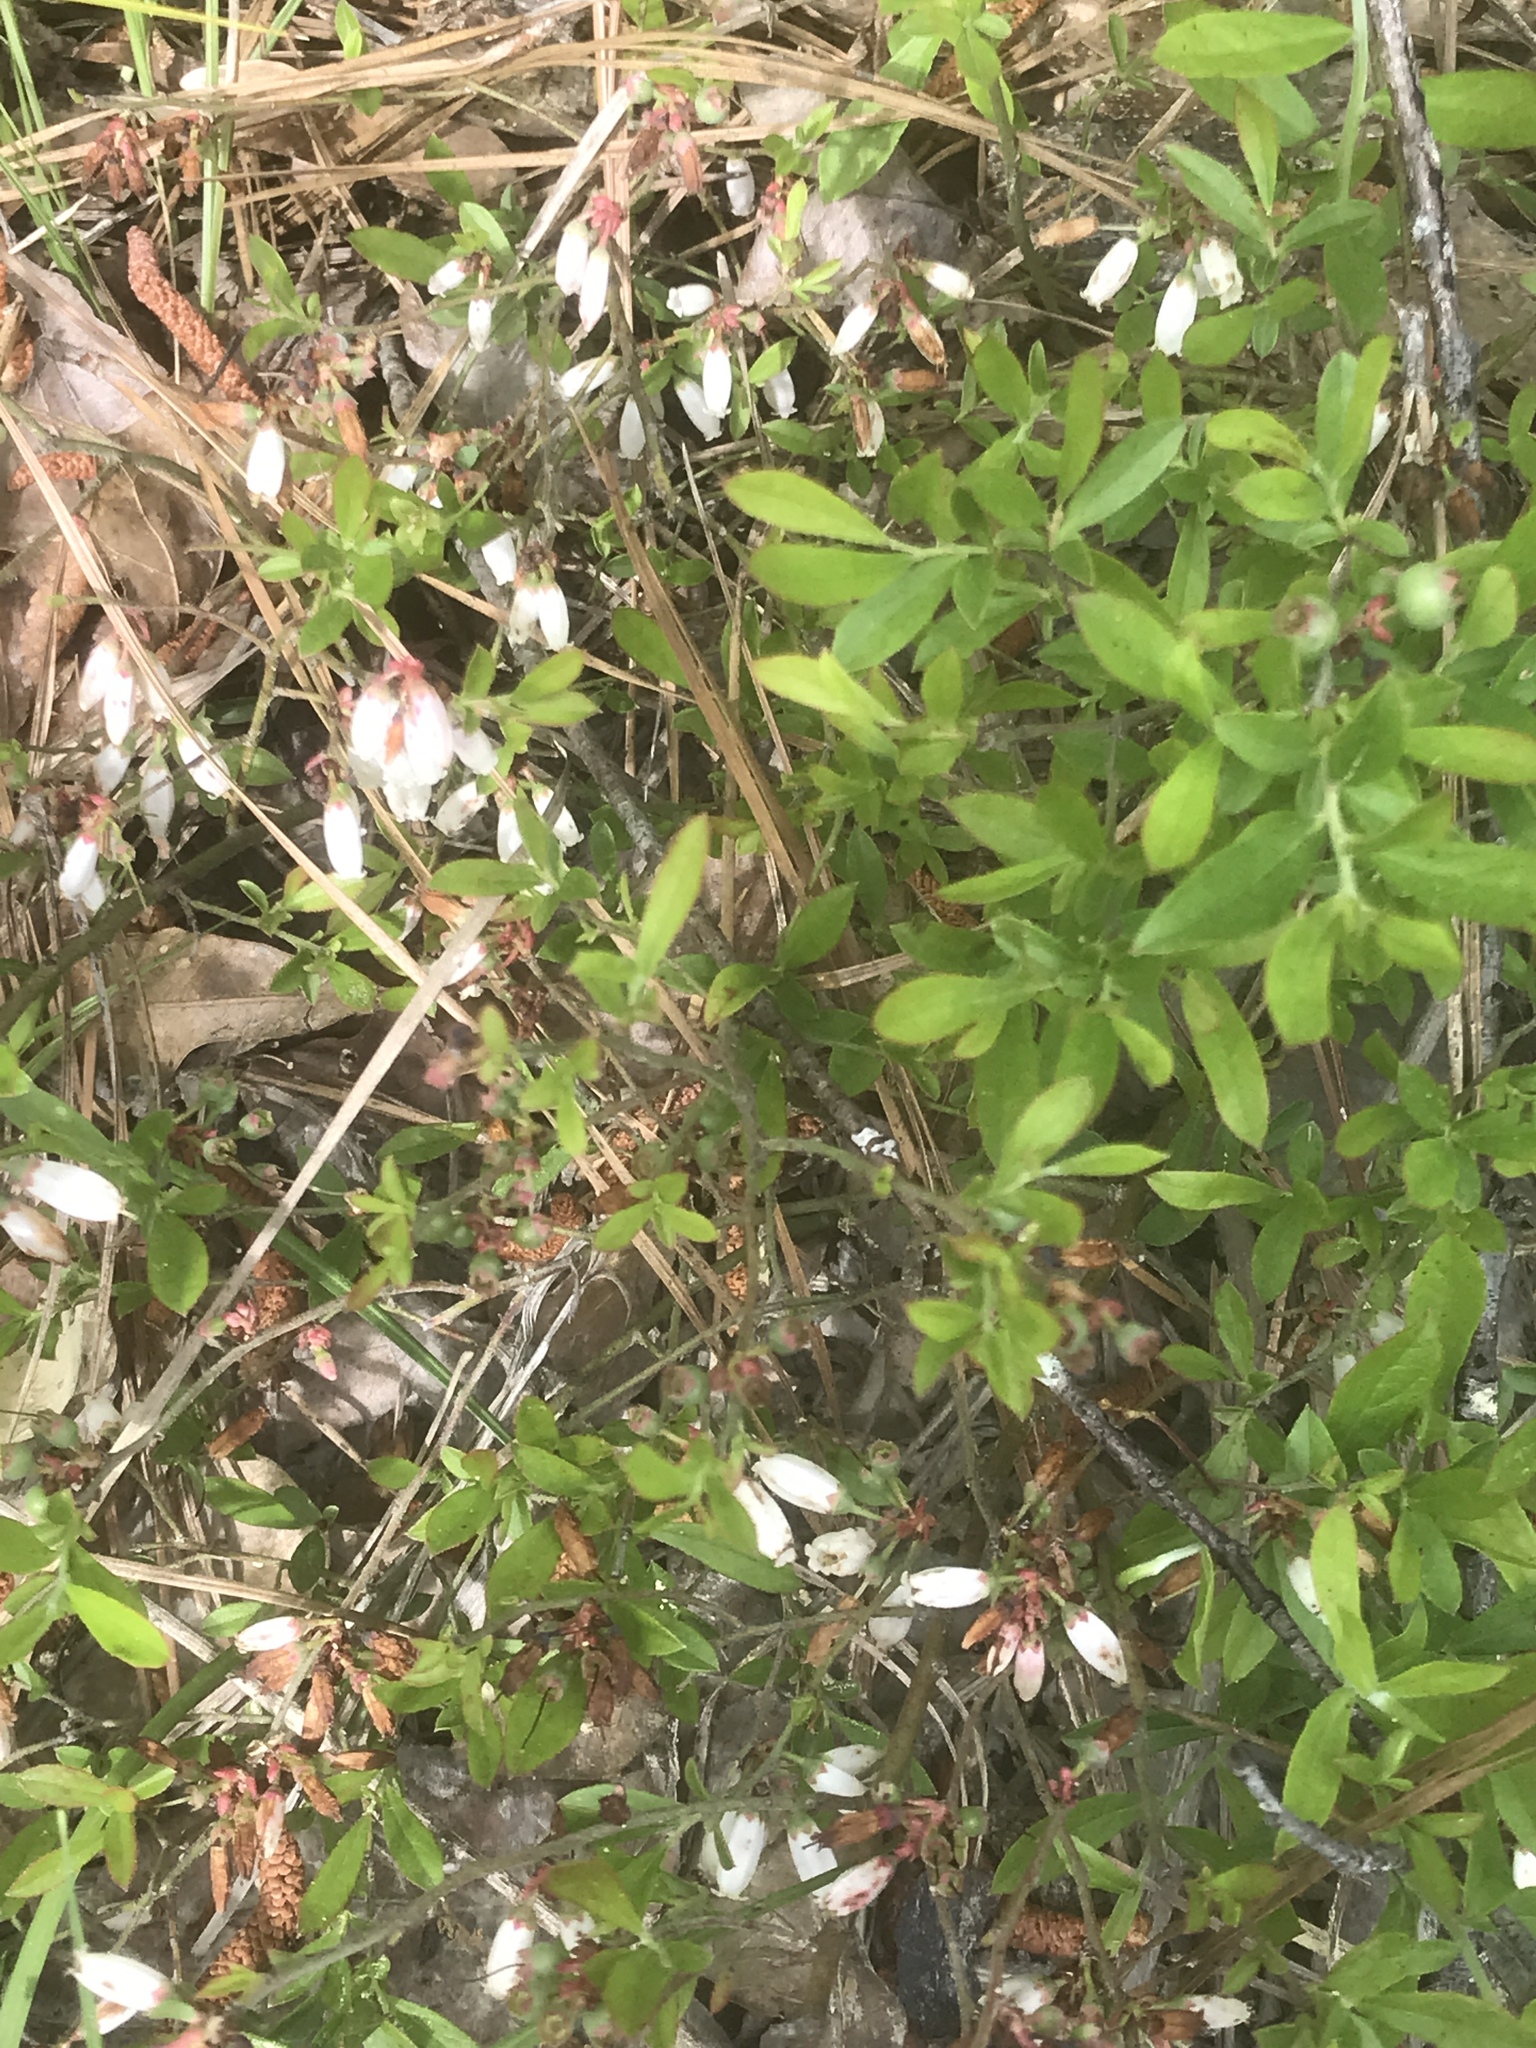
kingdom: Plantae
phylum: Tracheophyta
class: Magnoliopsida
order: Ericales
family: Ericaceae
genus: Vaccinium
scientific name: Vaccinium tenellum
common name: Southern blueberry
